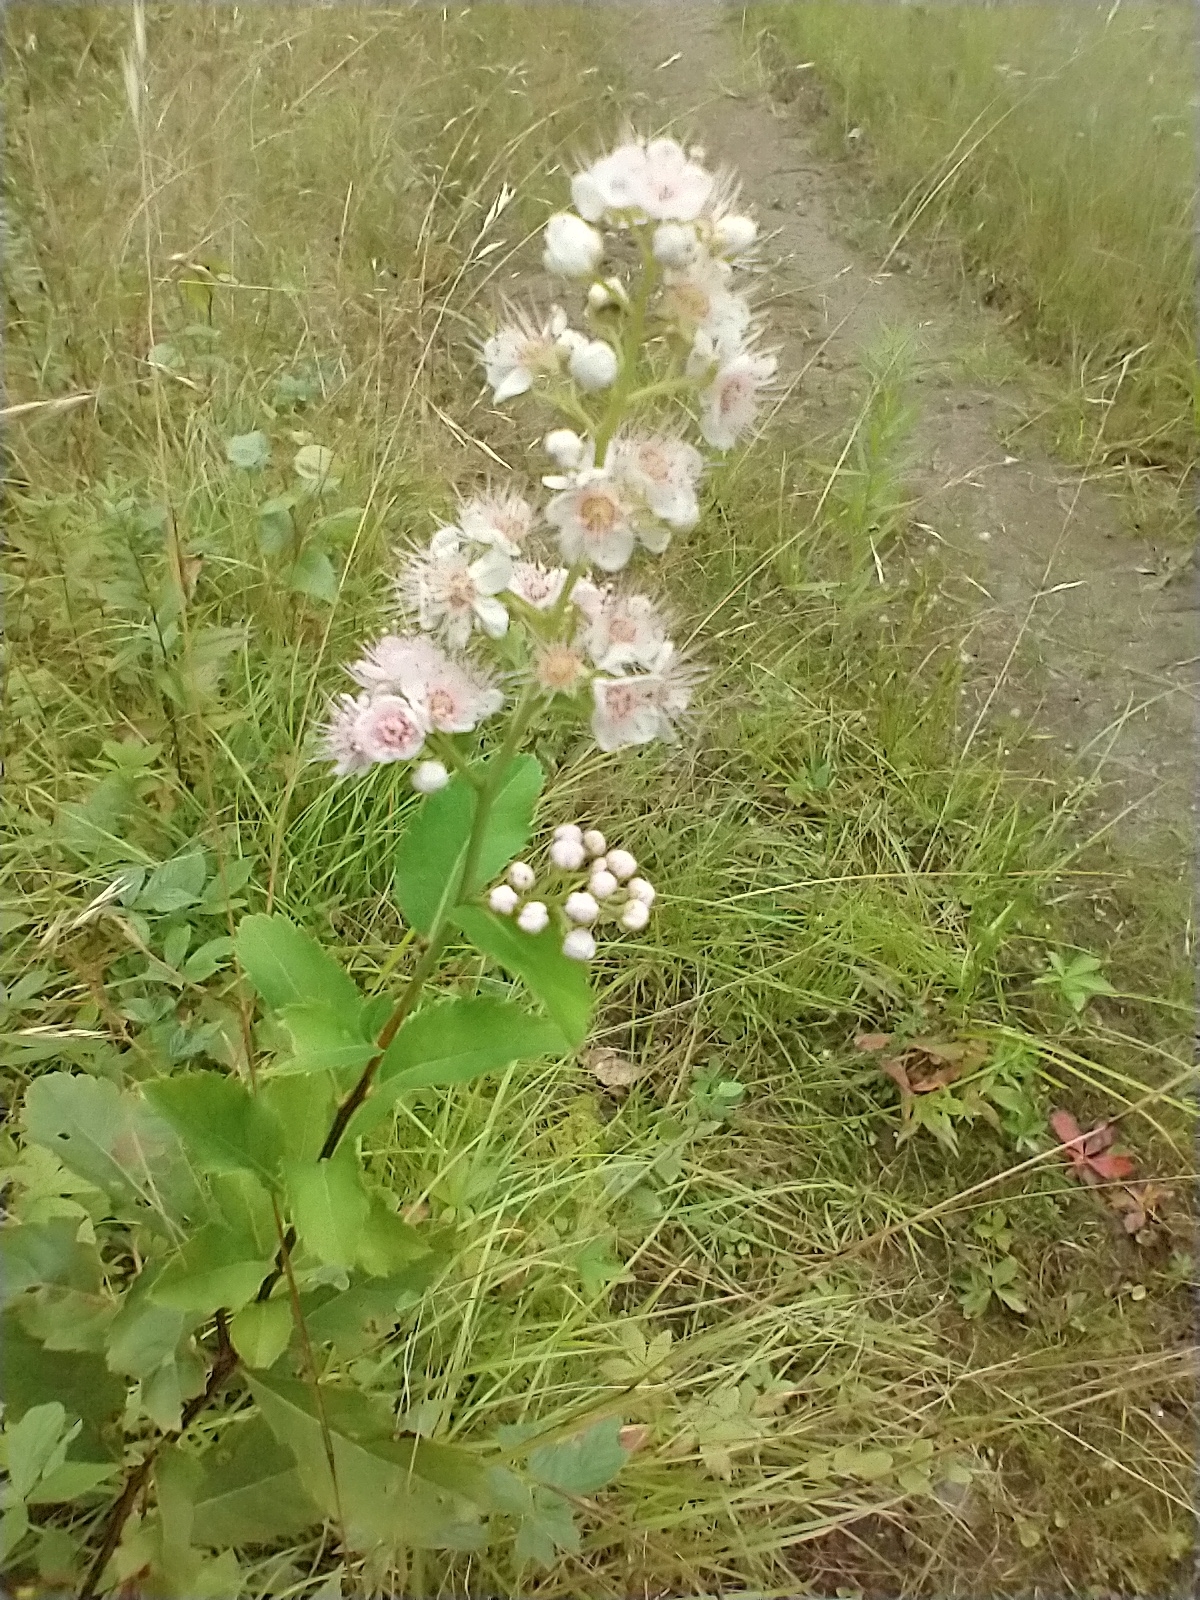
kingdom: Plantae
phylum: Tracheophyta
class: Magnoliopsida
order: Rosales
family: Rosaceae
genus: Spiraea
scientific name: Spiraea alba
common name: Pale bridewort
